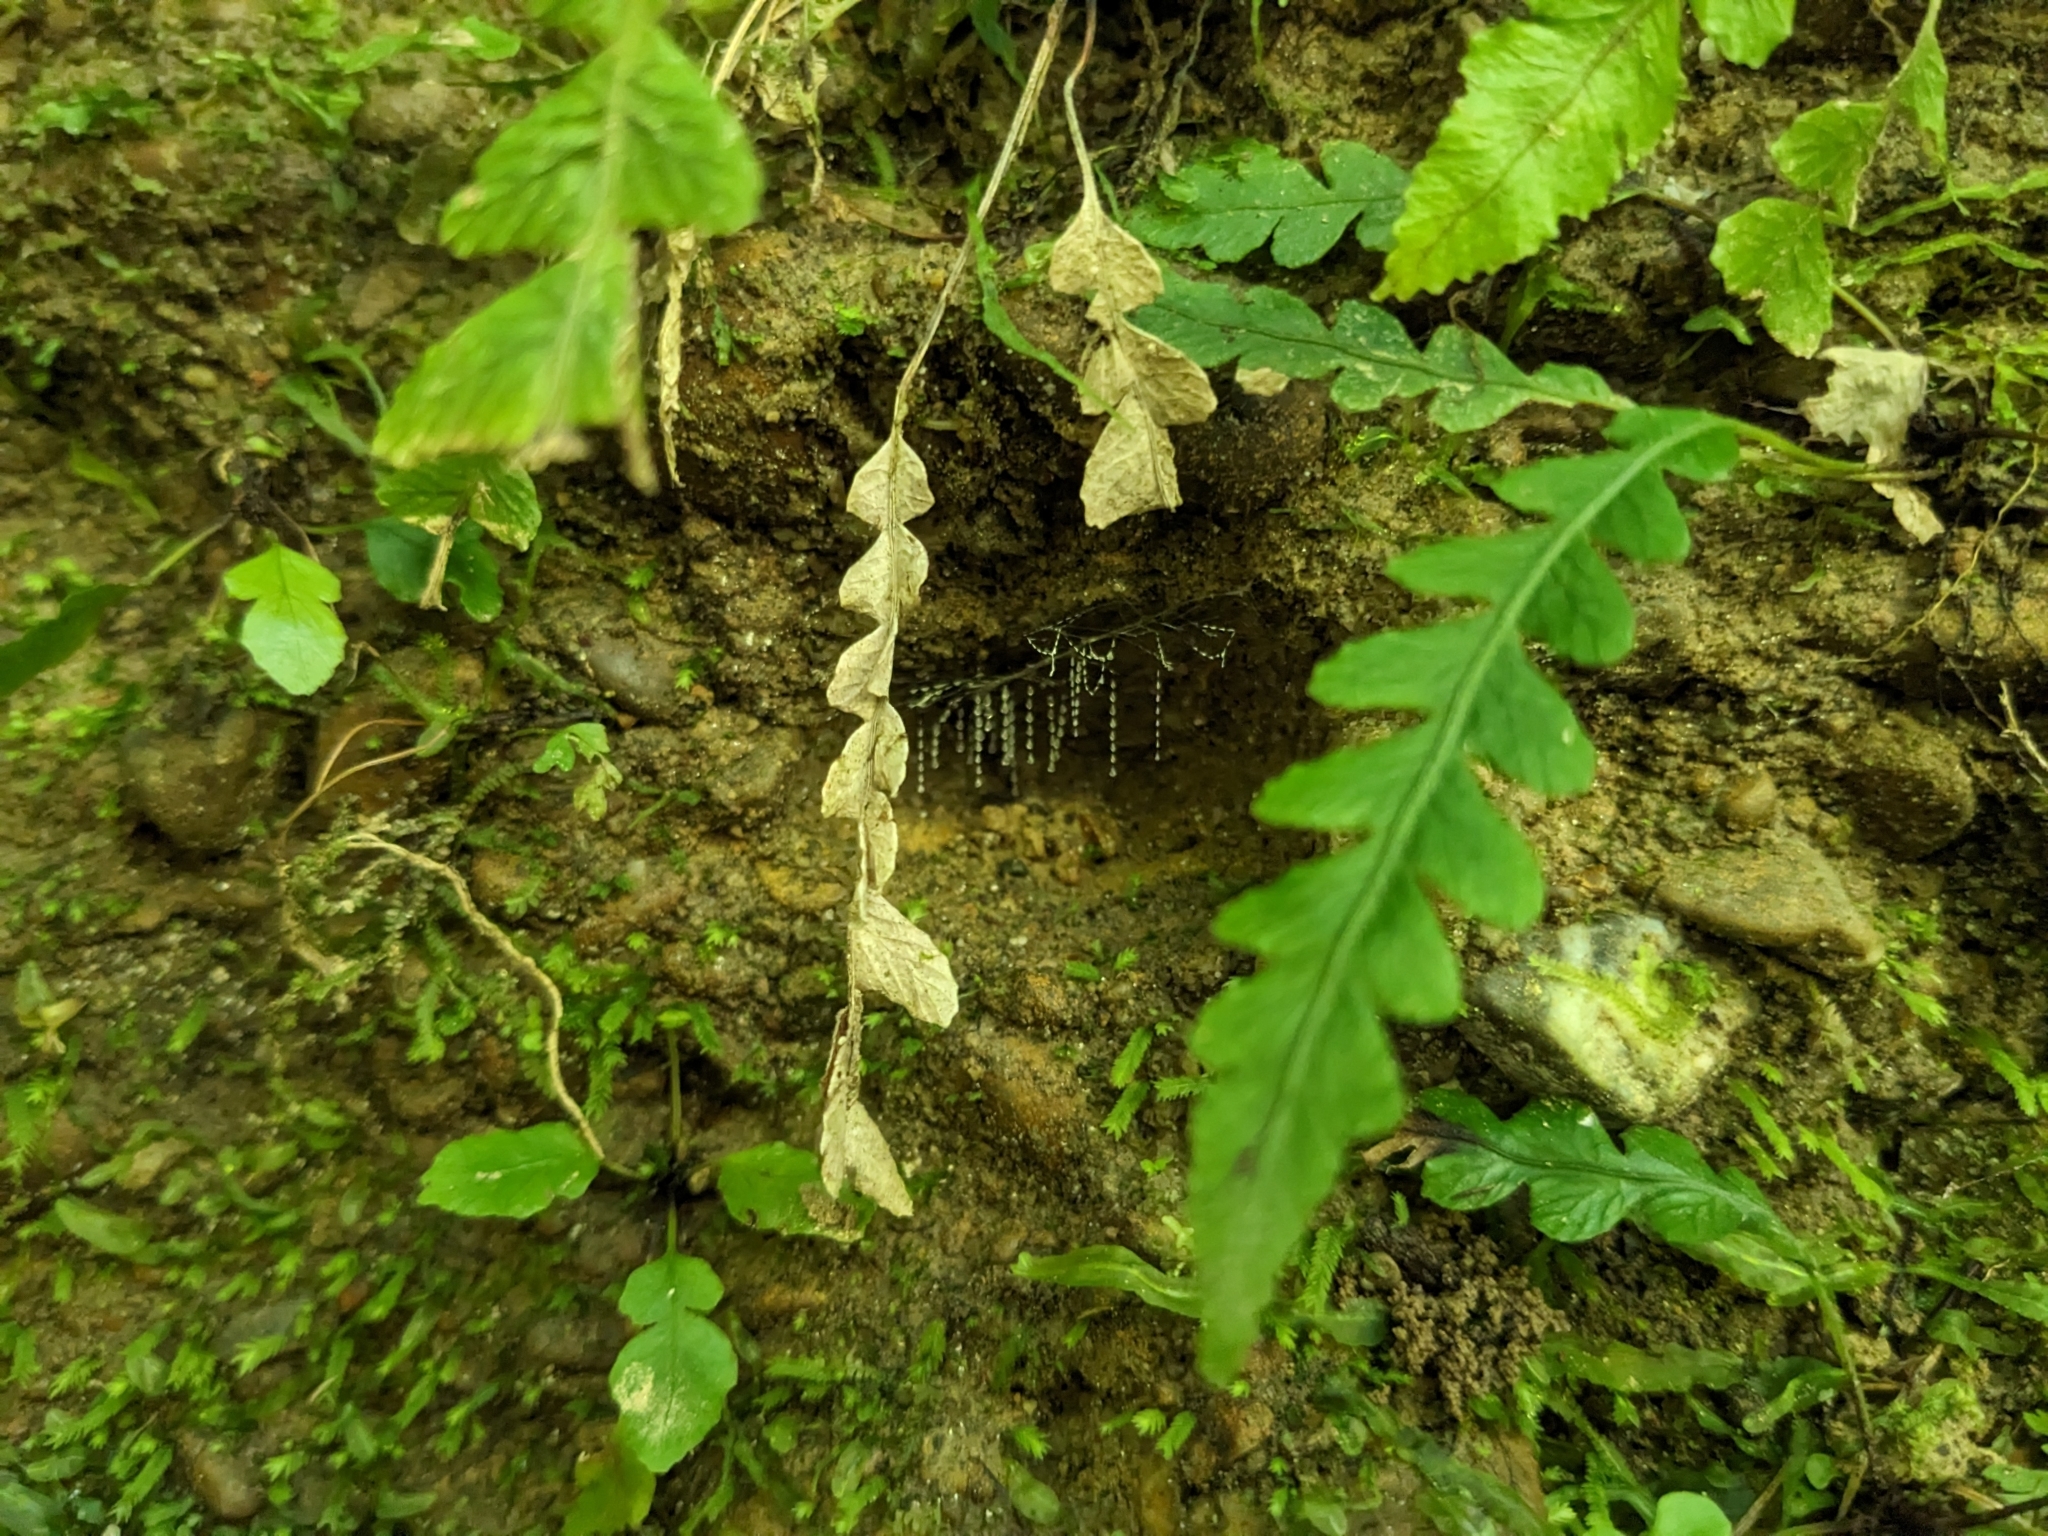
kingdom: Animalia
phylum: Arthropoda
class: Insecta
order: Diptera
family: Keroplatidae
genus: Arachnocampa
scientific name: Arachnocampa luminosa
